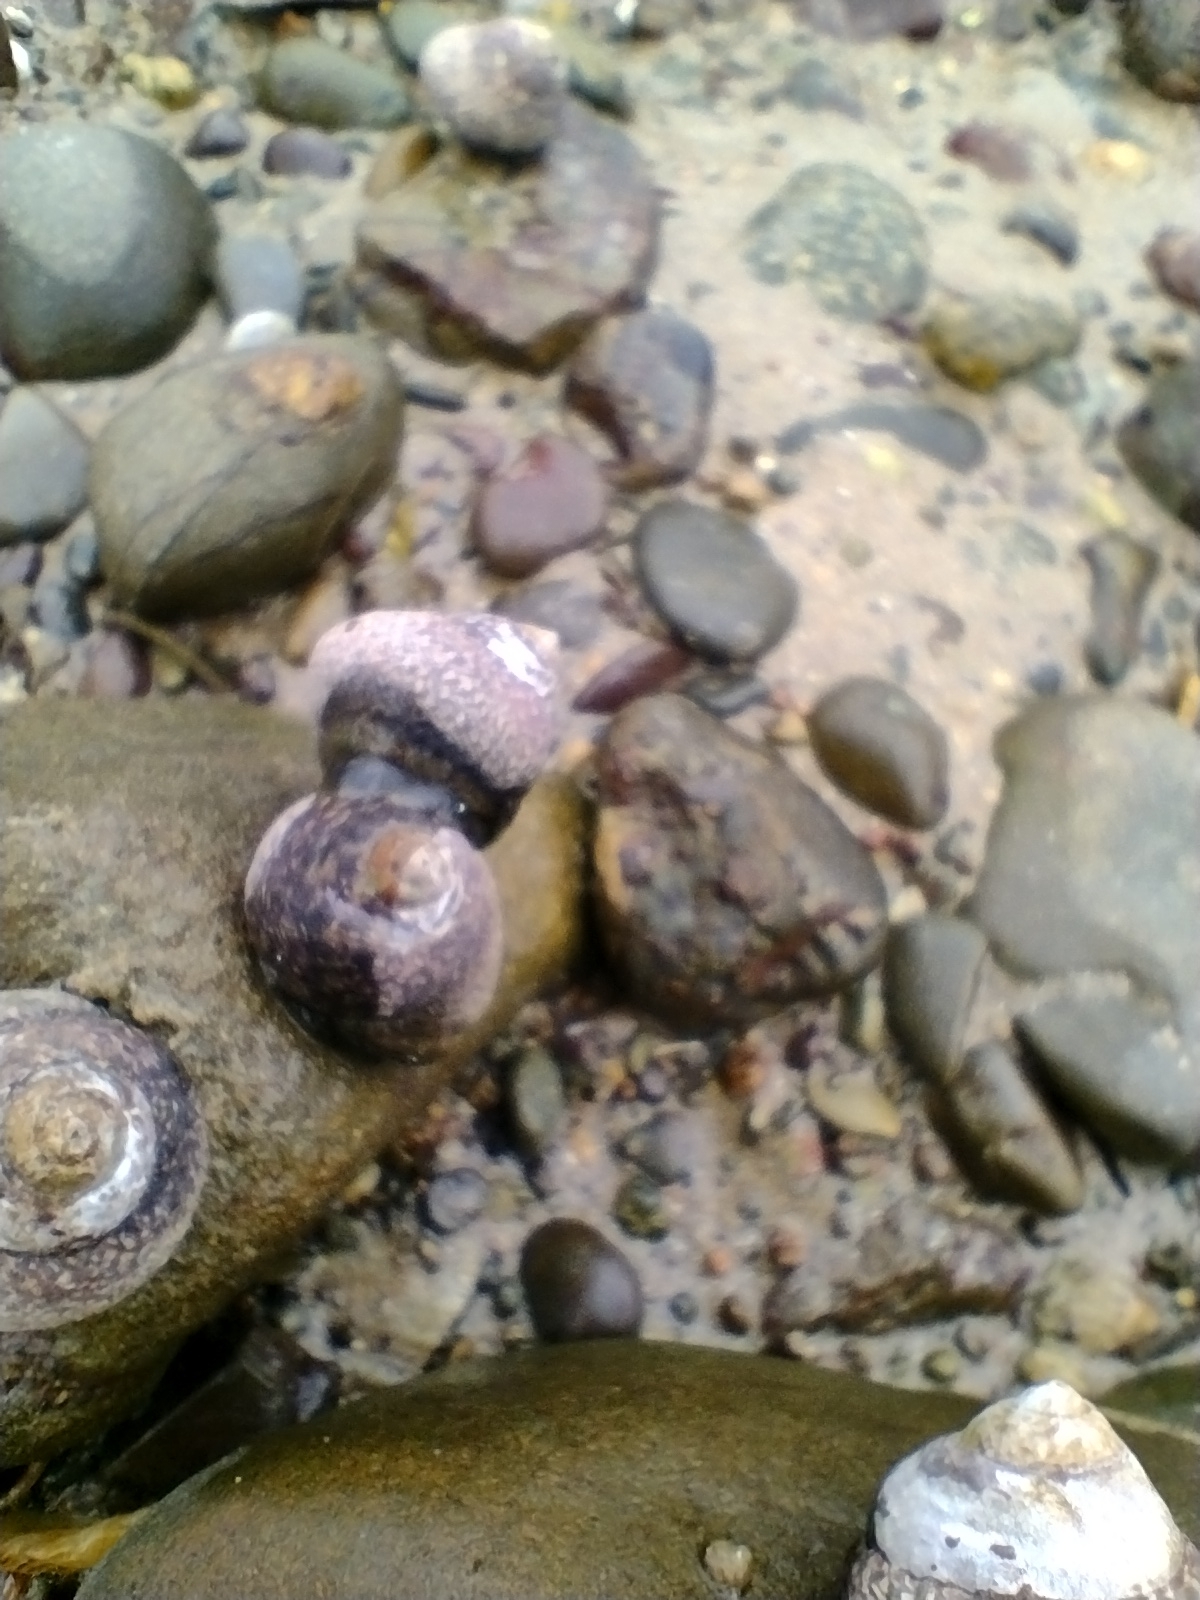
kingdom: Animalia
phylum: Mollusca
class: Gastropoda
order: Trochida
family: Trochidae
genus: Phorcus
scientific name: Phorcus lineatus
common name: Toothed top shell
